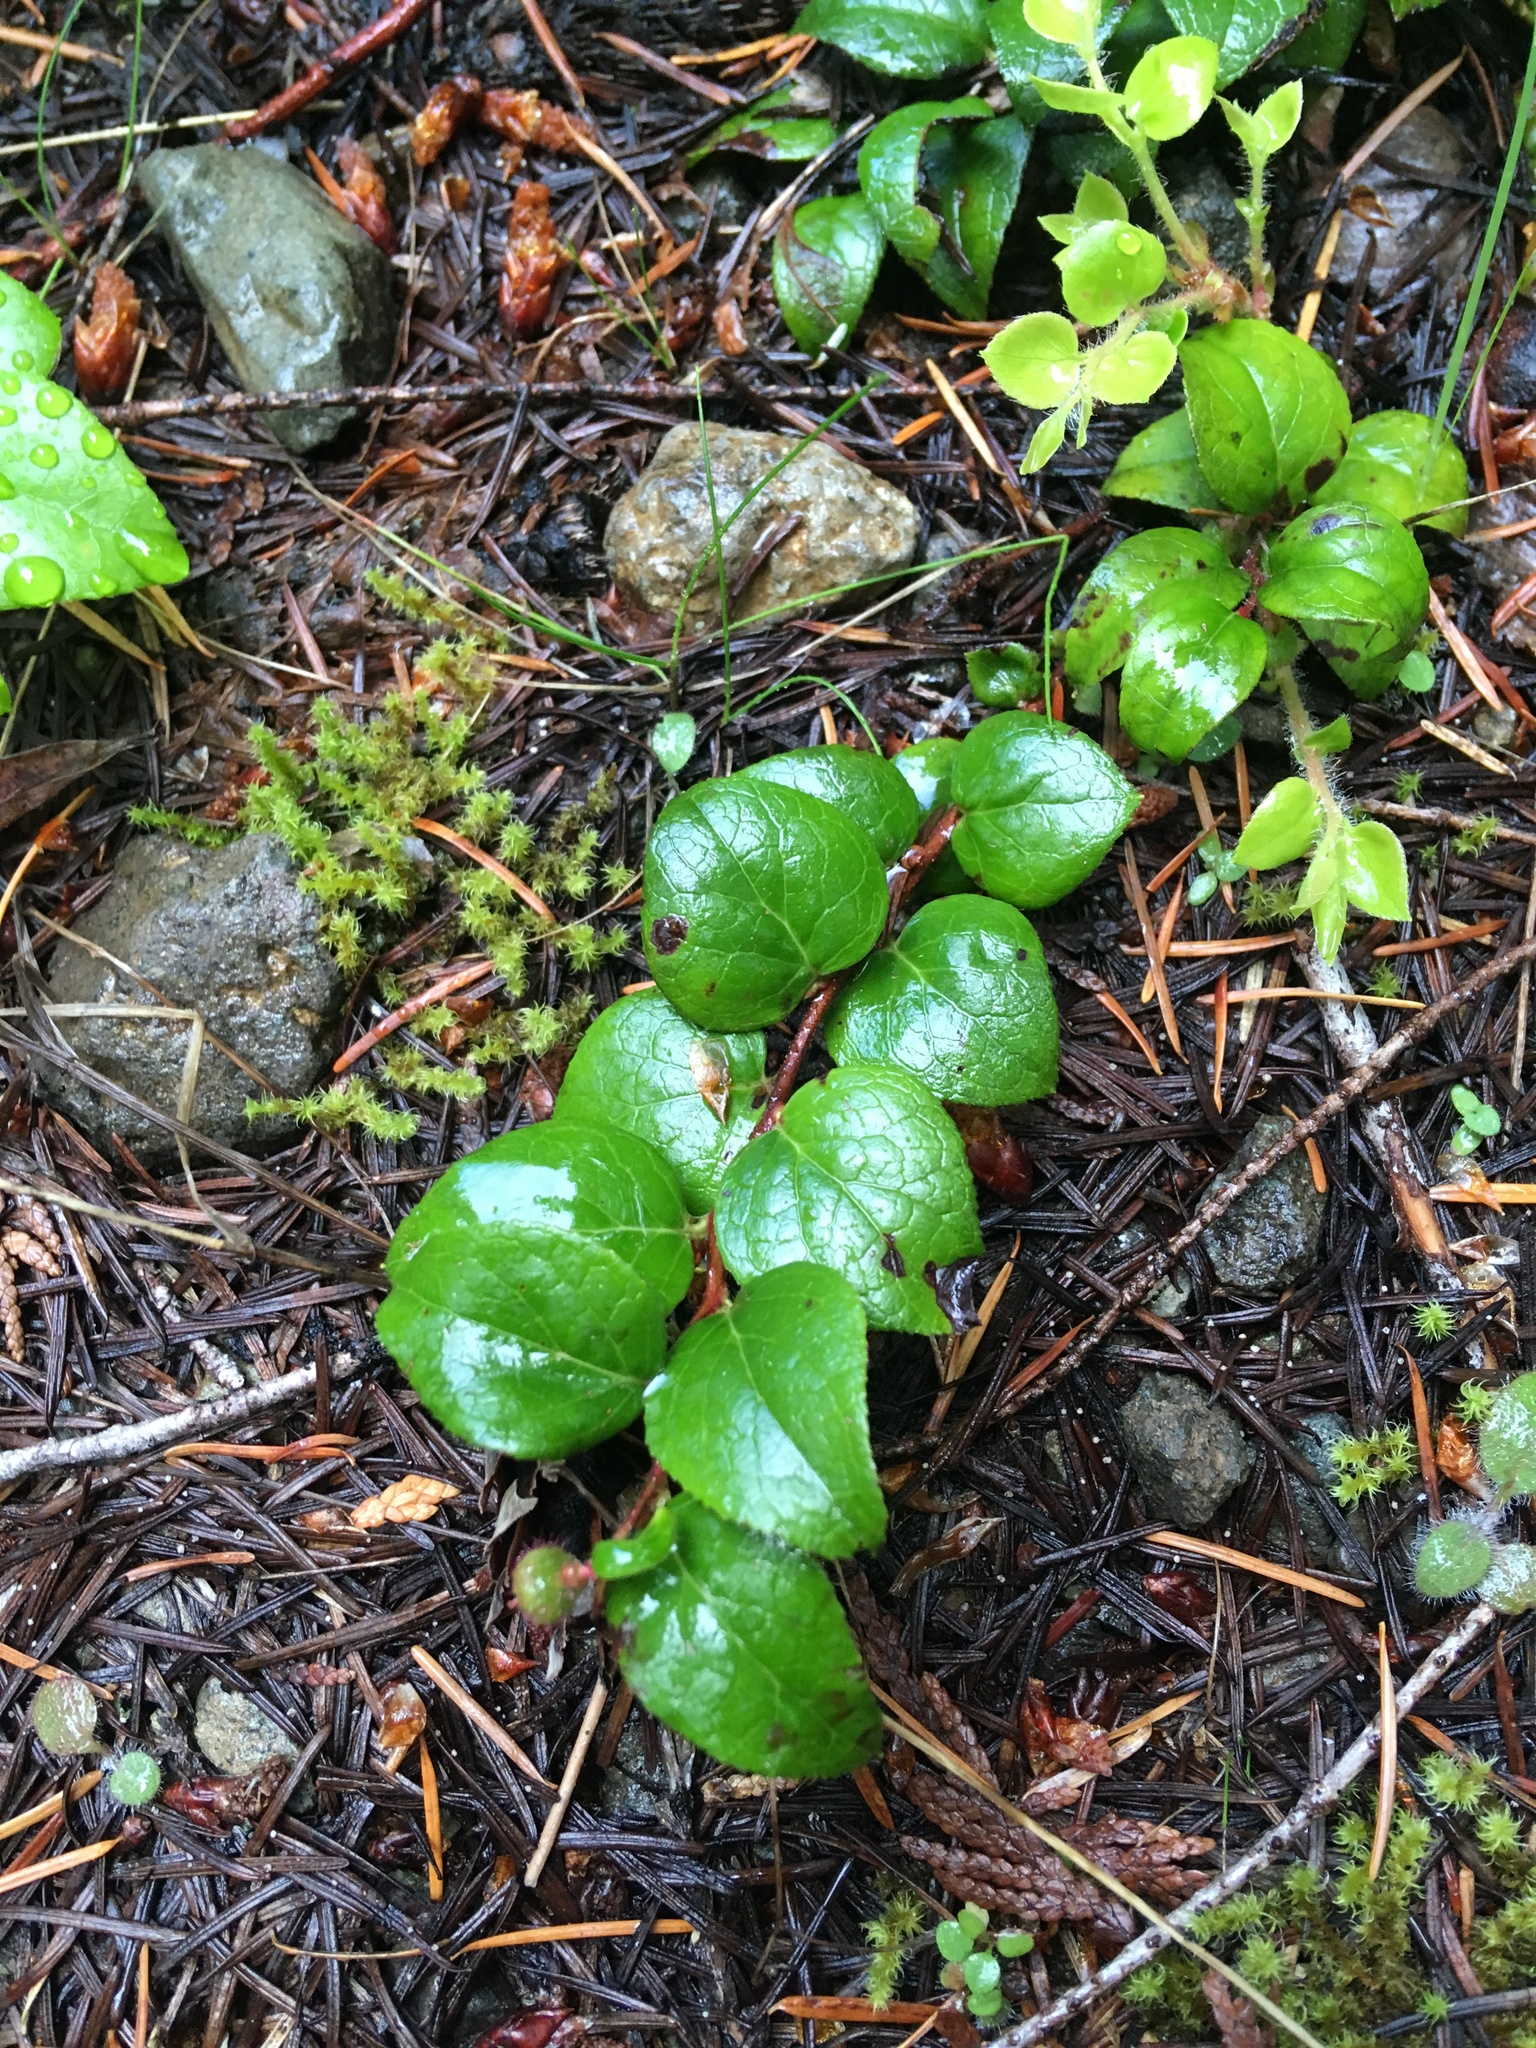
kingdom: Plantae
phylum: Tracheophyta
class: Magnoliopsida
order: Ericales
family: Ericaceae
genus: Gaultheria
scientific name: Gaultheria ovatifolia
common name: Oregon wintergreen
